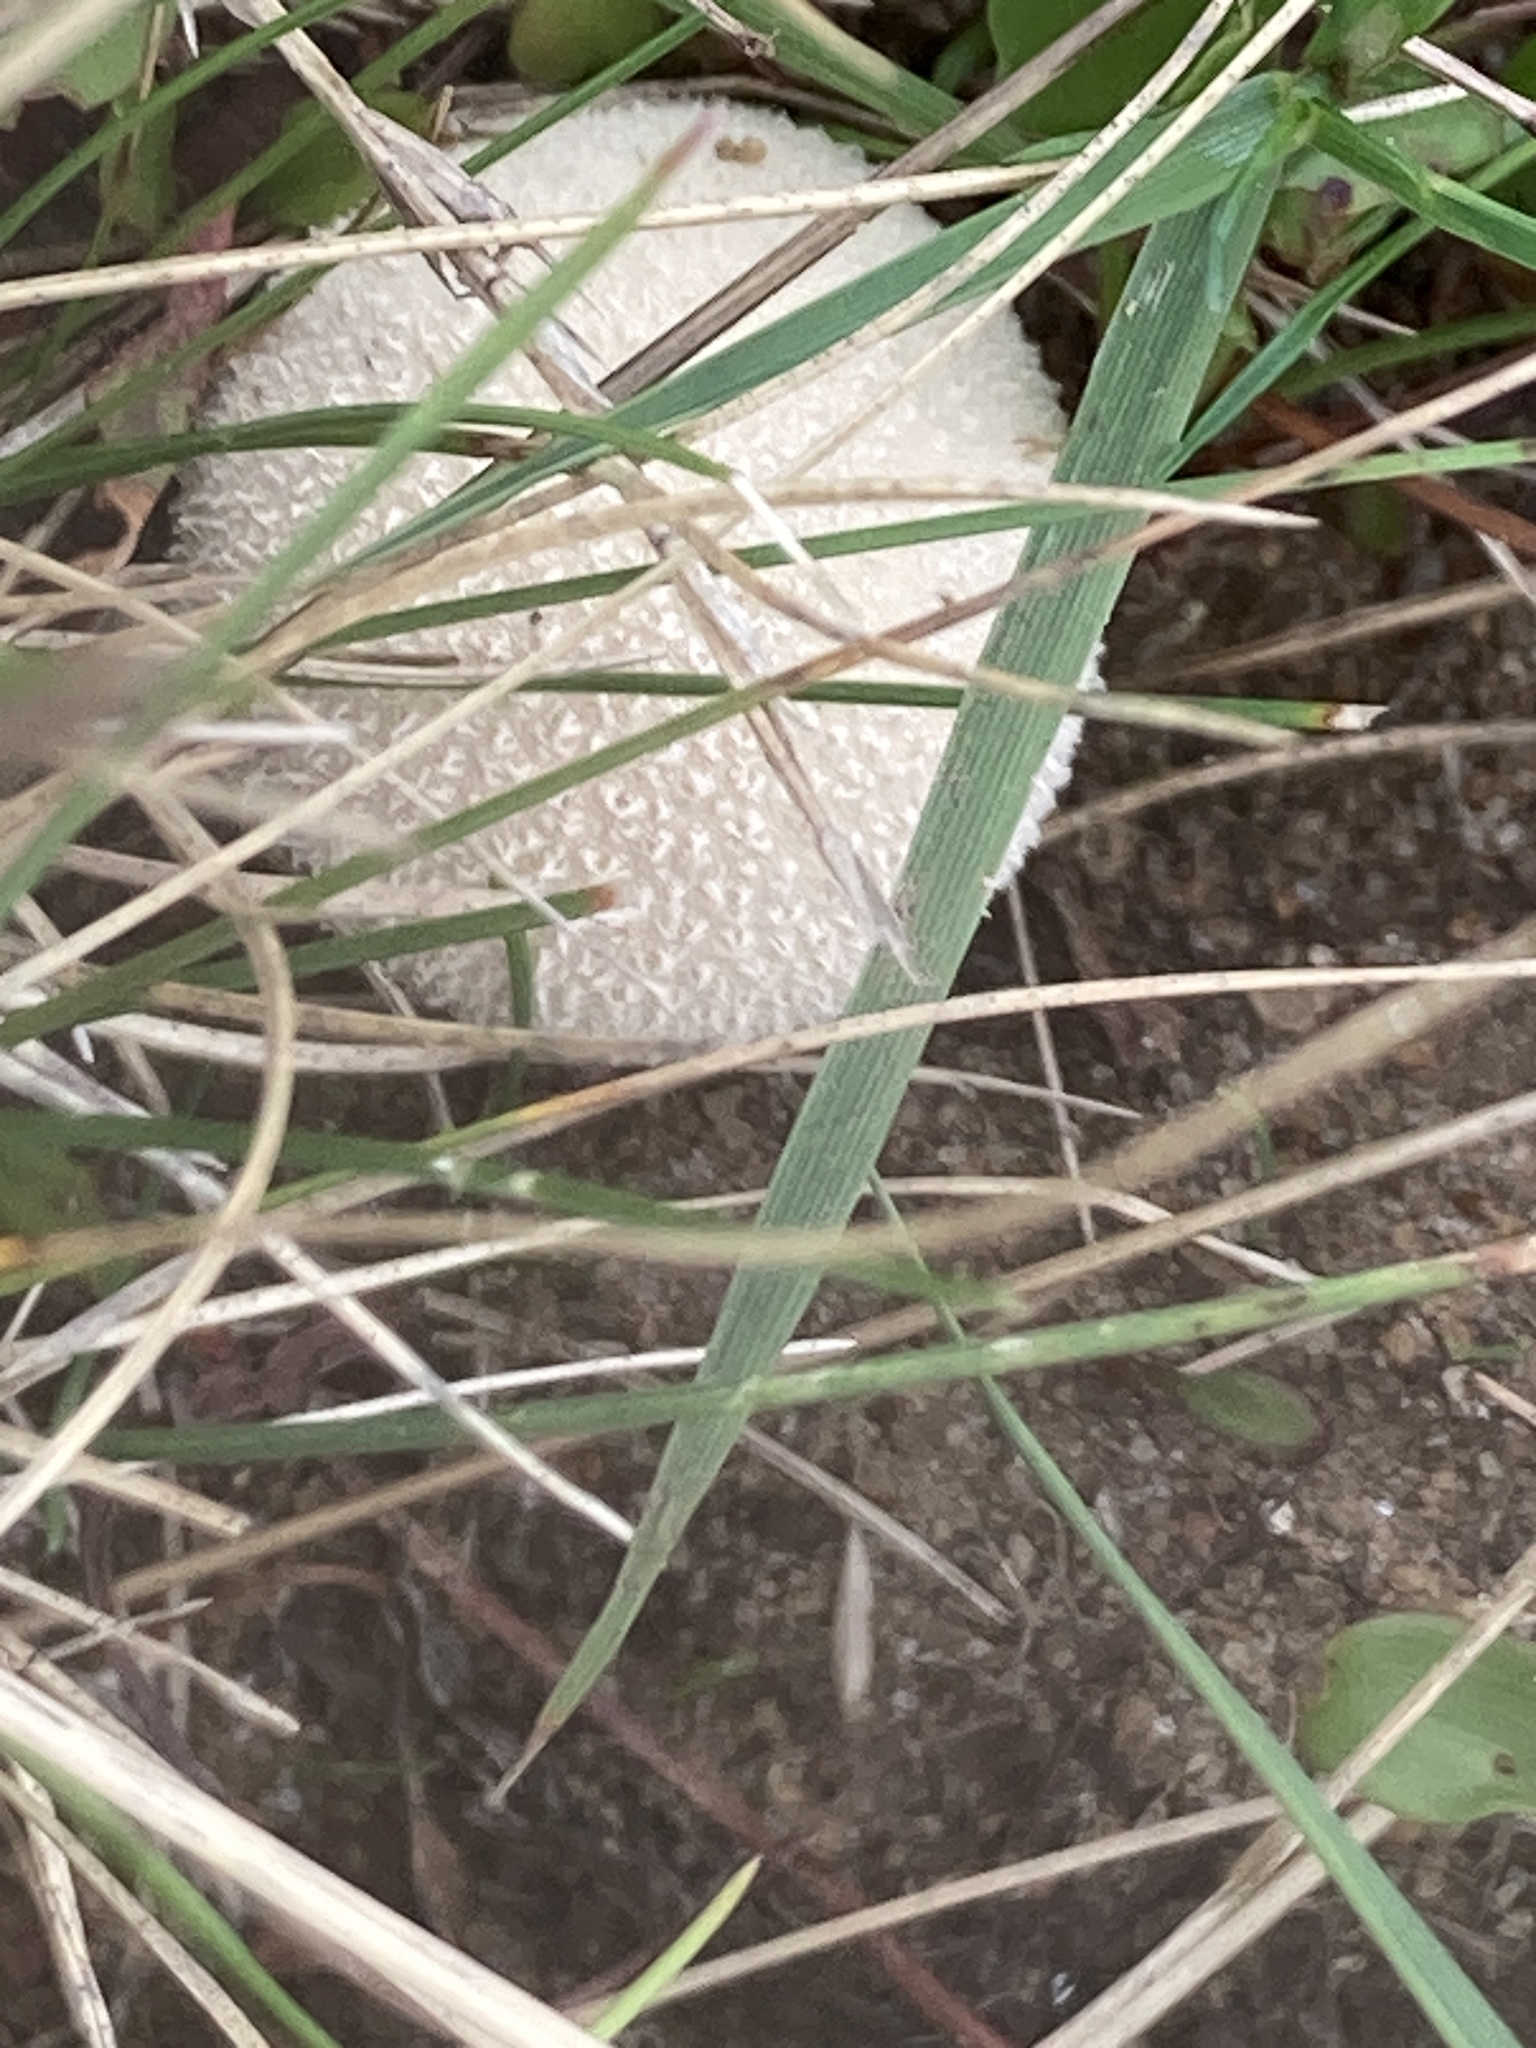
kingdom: Fungi
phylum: Basidiomycota
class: Agaricomycetes
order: Agaricales
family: Lycoperdaceae
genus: Lycoperdon
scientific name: Lycoperdon pratense
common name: Meadow puffball
